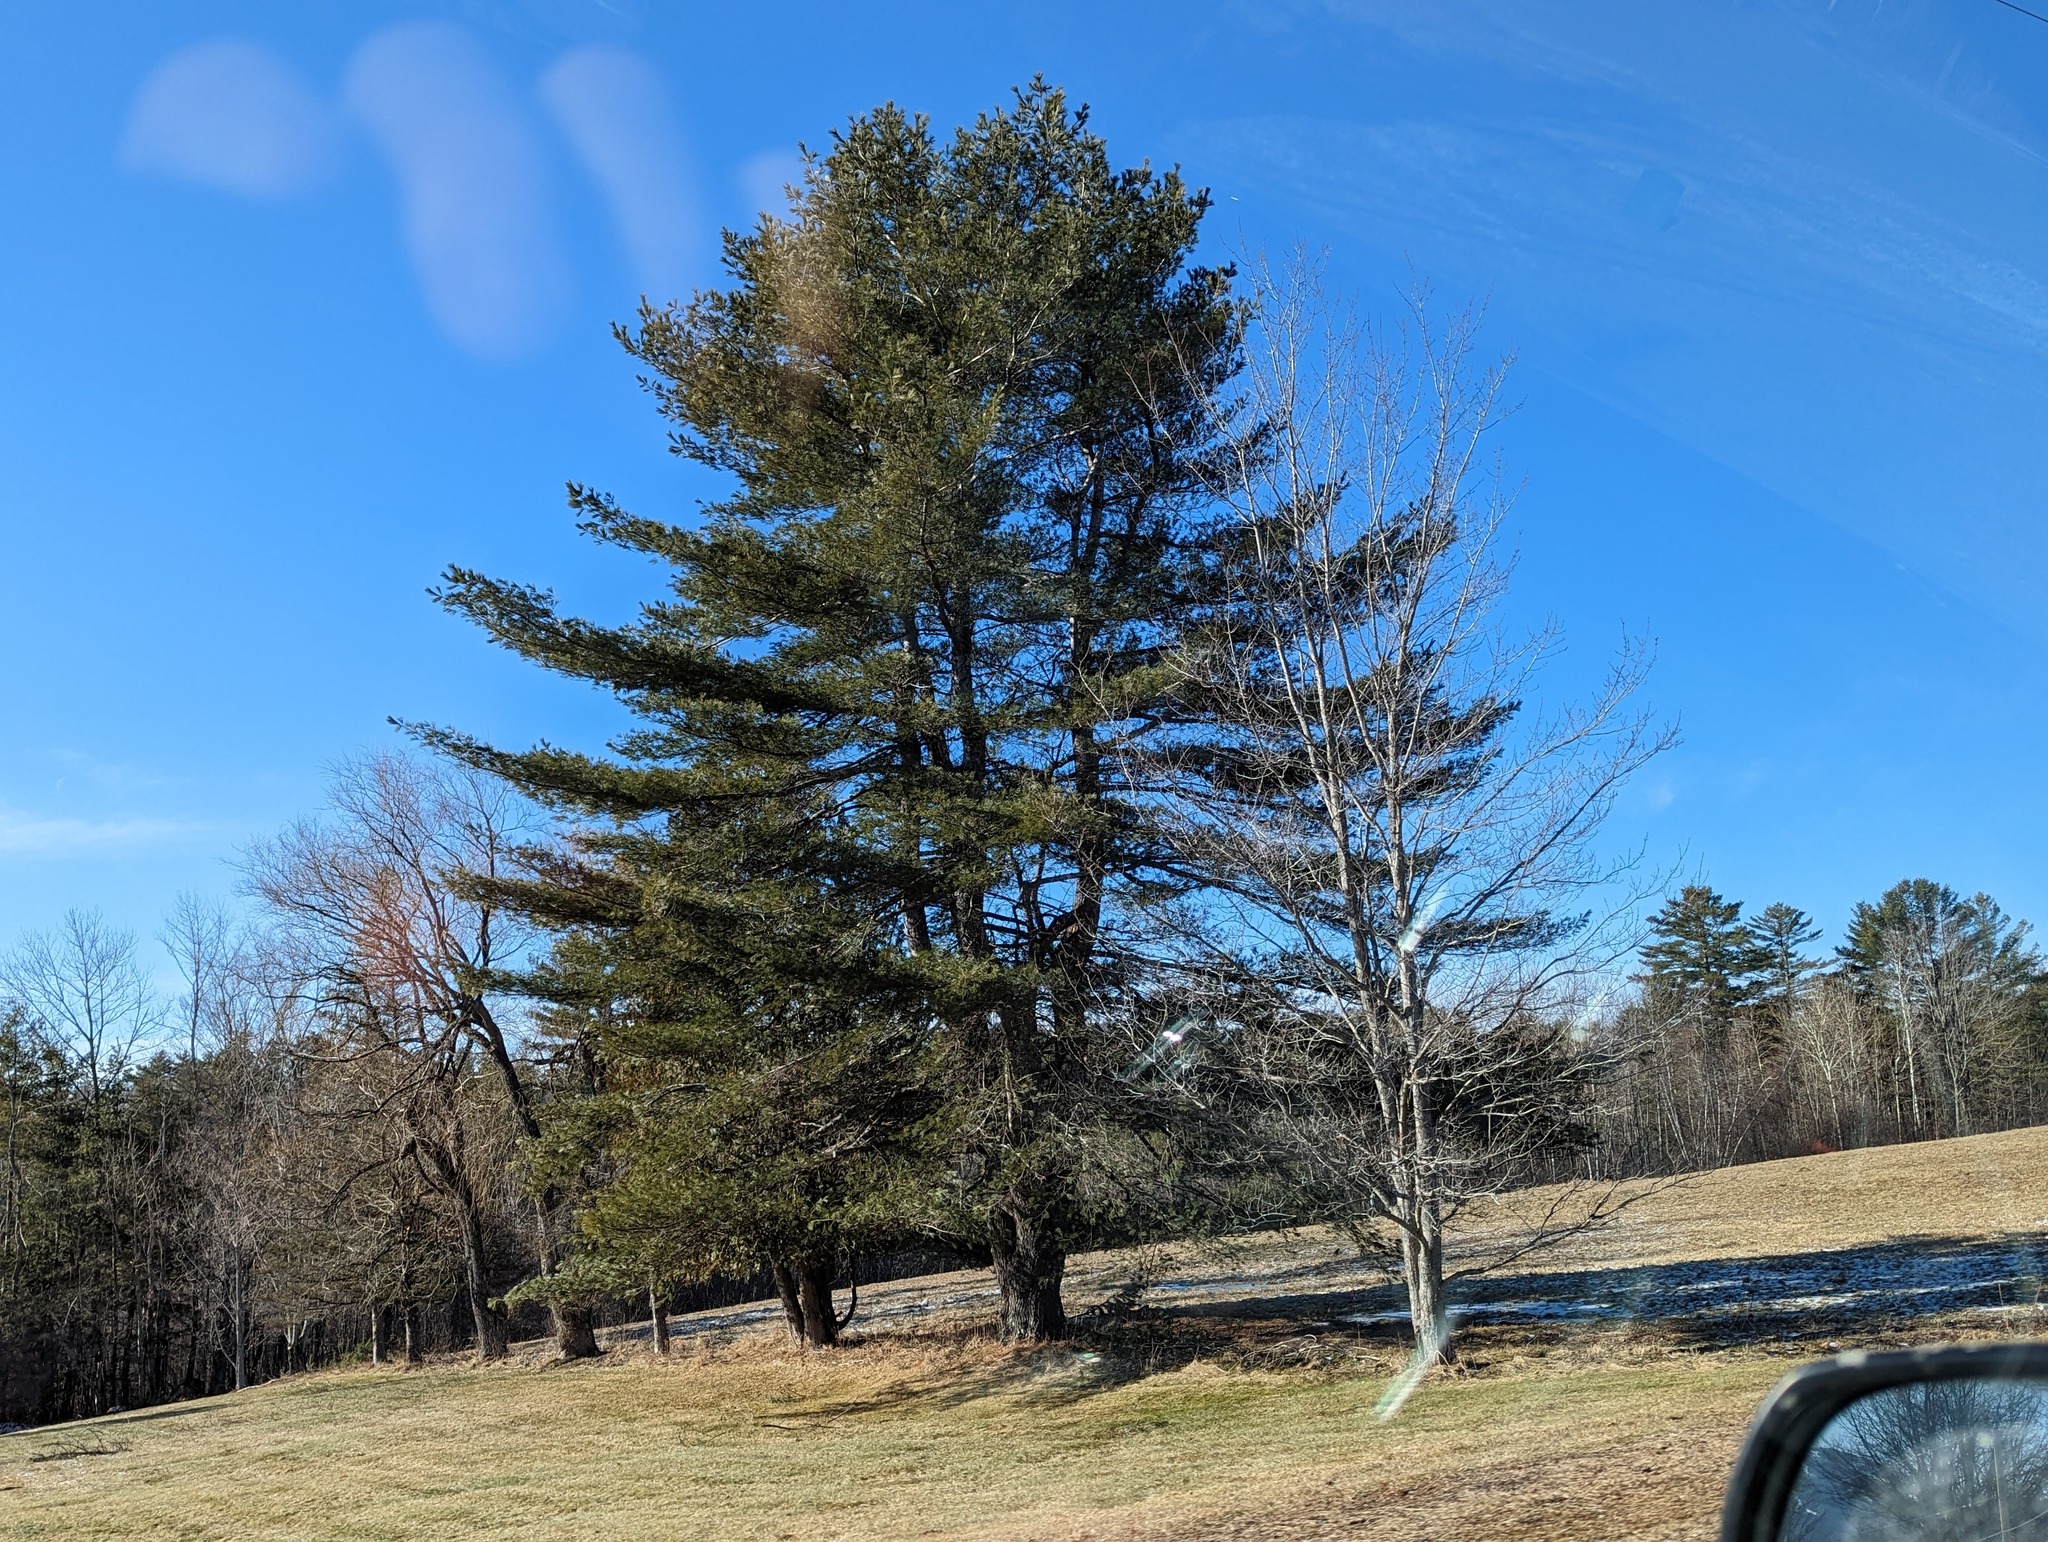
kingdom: Plantae
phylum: Tracheophyta
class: Pinopsida
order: Pinales
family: Pinaceae
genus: Pinus
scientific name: Pinus strobus
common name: Weymouth pine
